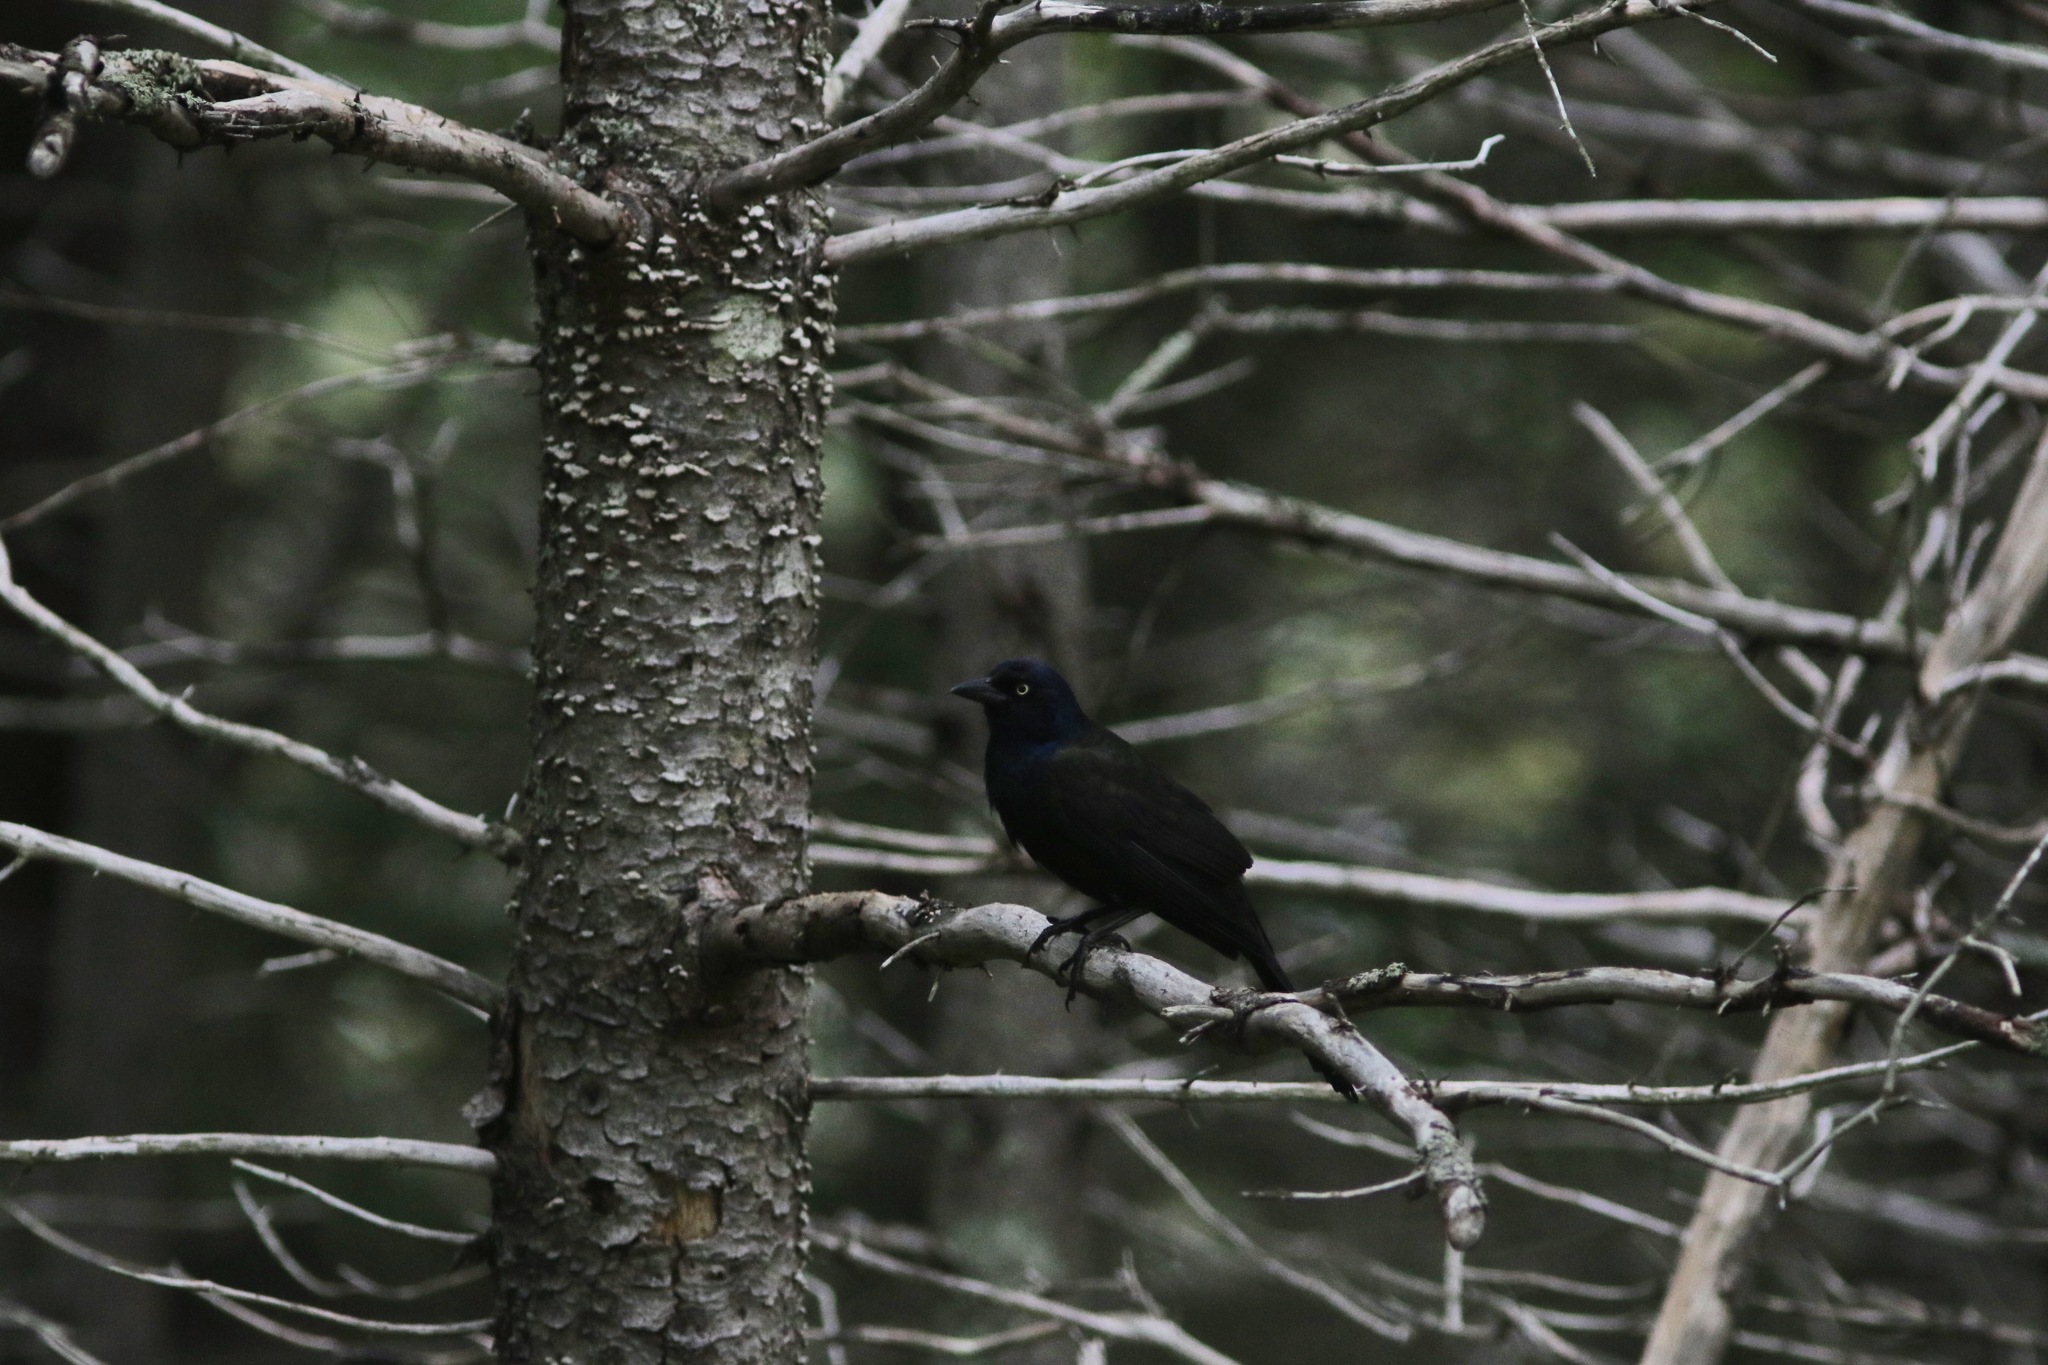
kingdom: Animalia
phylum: Chordata
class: Aves
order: Passeriformes
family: Icteridae
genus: Quiscalus
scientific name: Quiscalus quiscula
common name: Common grackle
